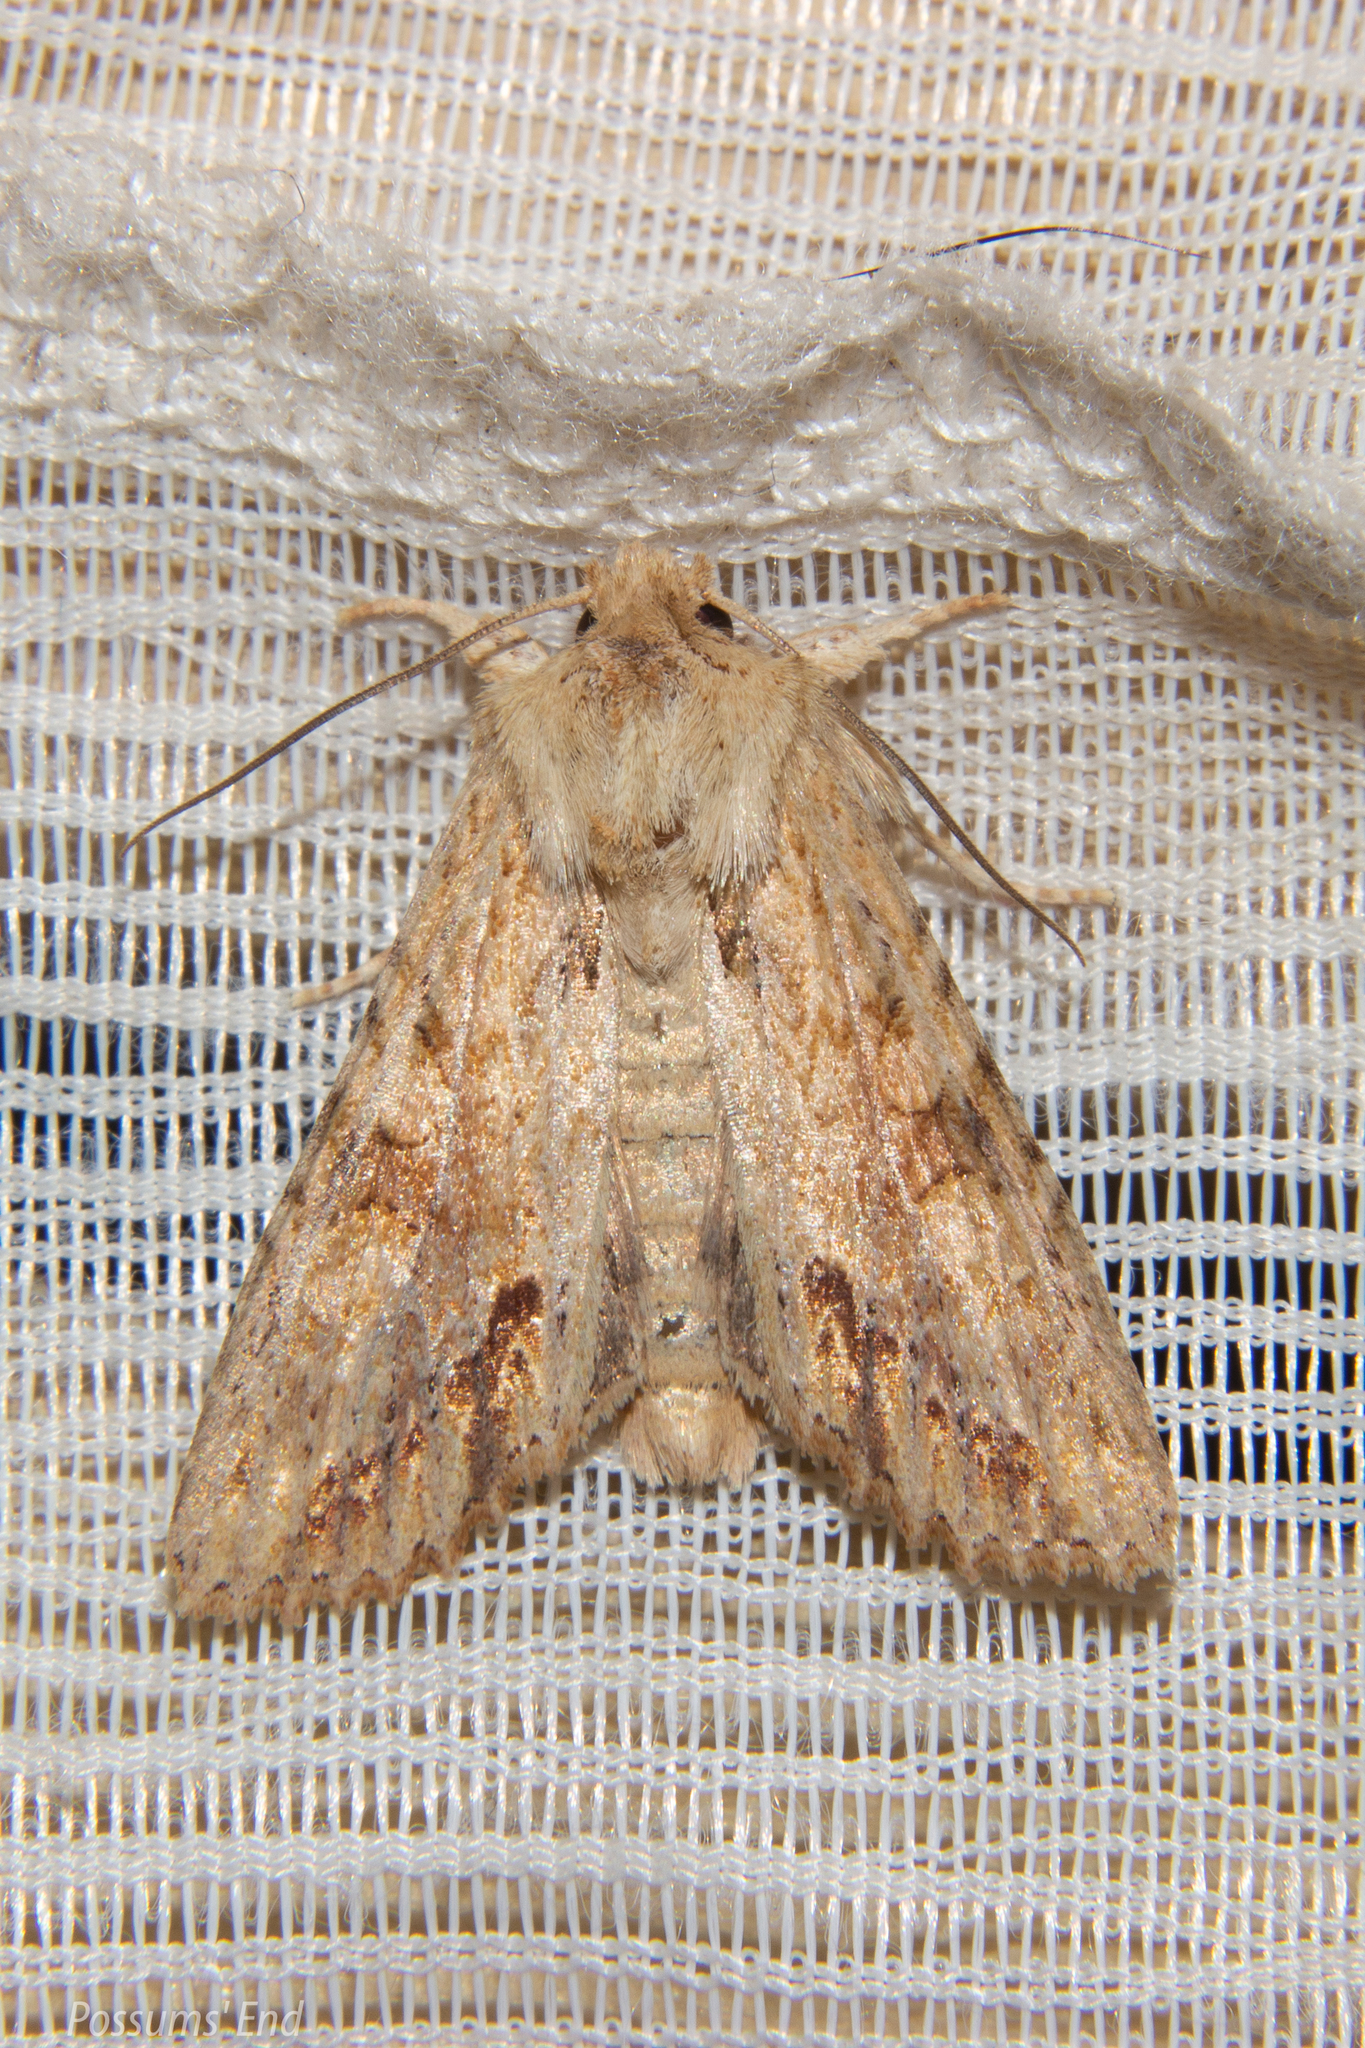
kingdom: Animalia
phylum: Arthropoda
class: Insecta
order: Lepidoptera
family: Noctuidae
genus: Ichneutica
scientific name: Ichneutica mollis
